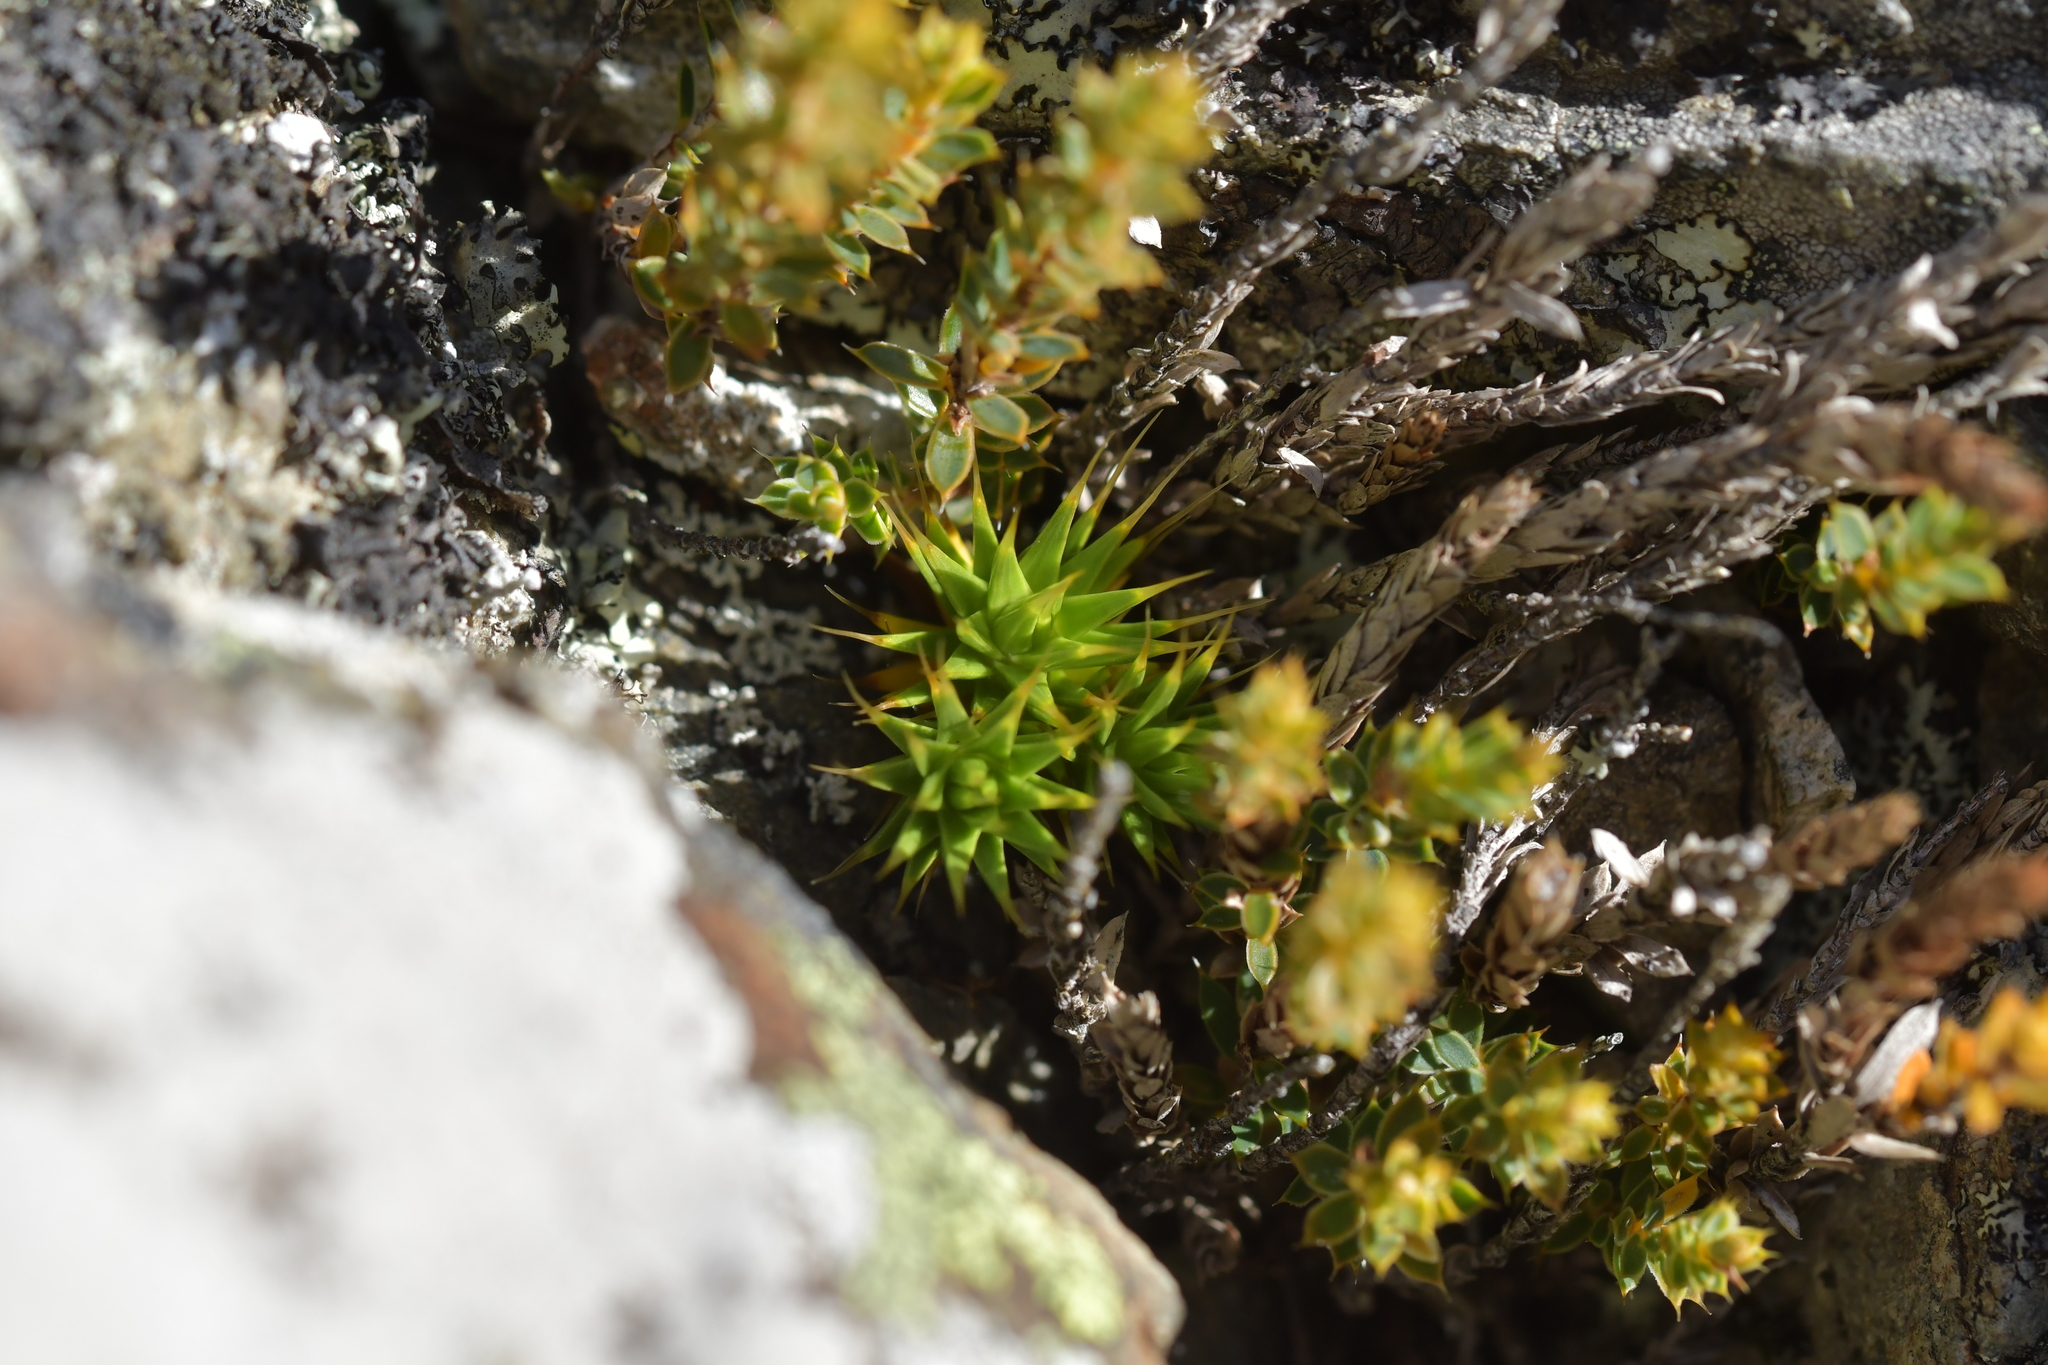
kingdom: Plantae
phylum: Tracheophyta
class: Magnoliopsida
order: Caryophyllales
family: Caryophyllaceae
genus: Colobanthus
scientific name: Colobanthus acicularis
